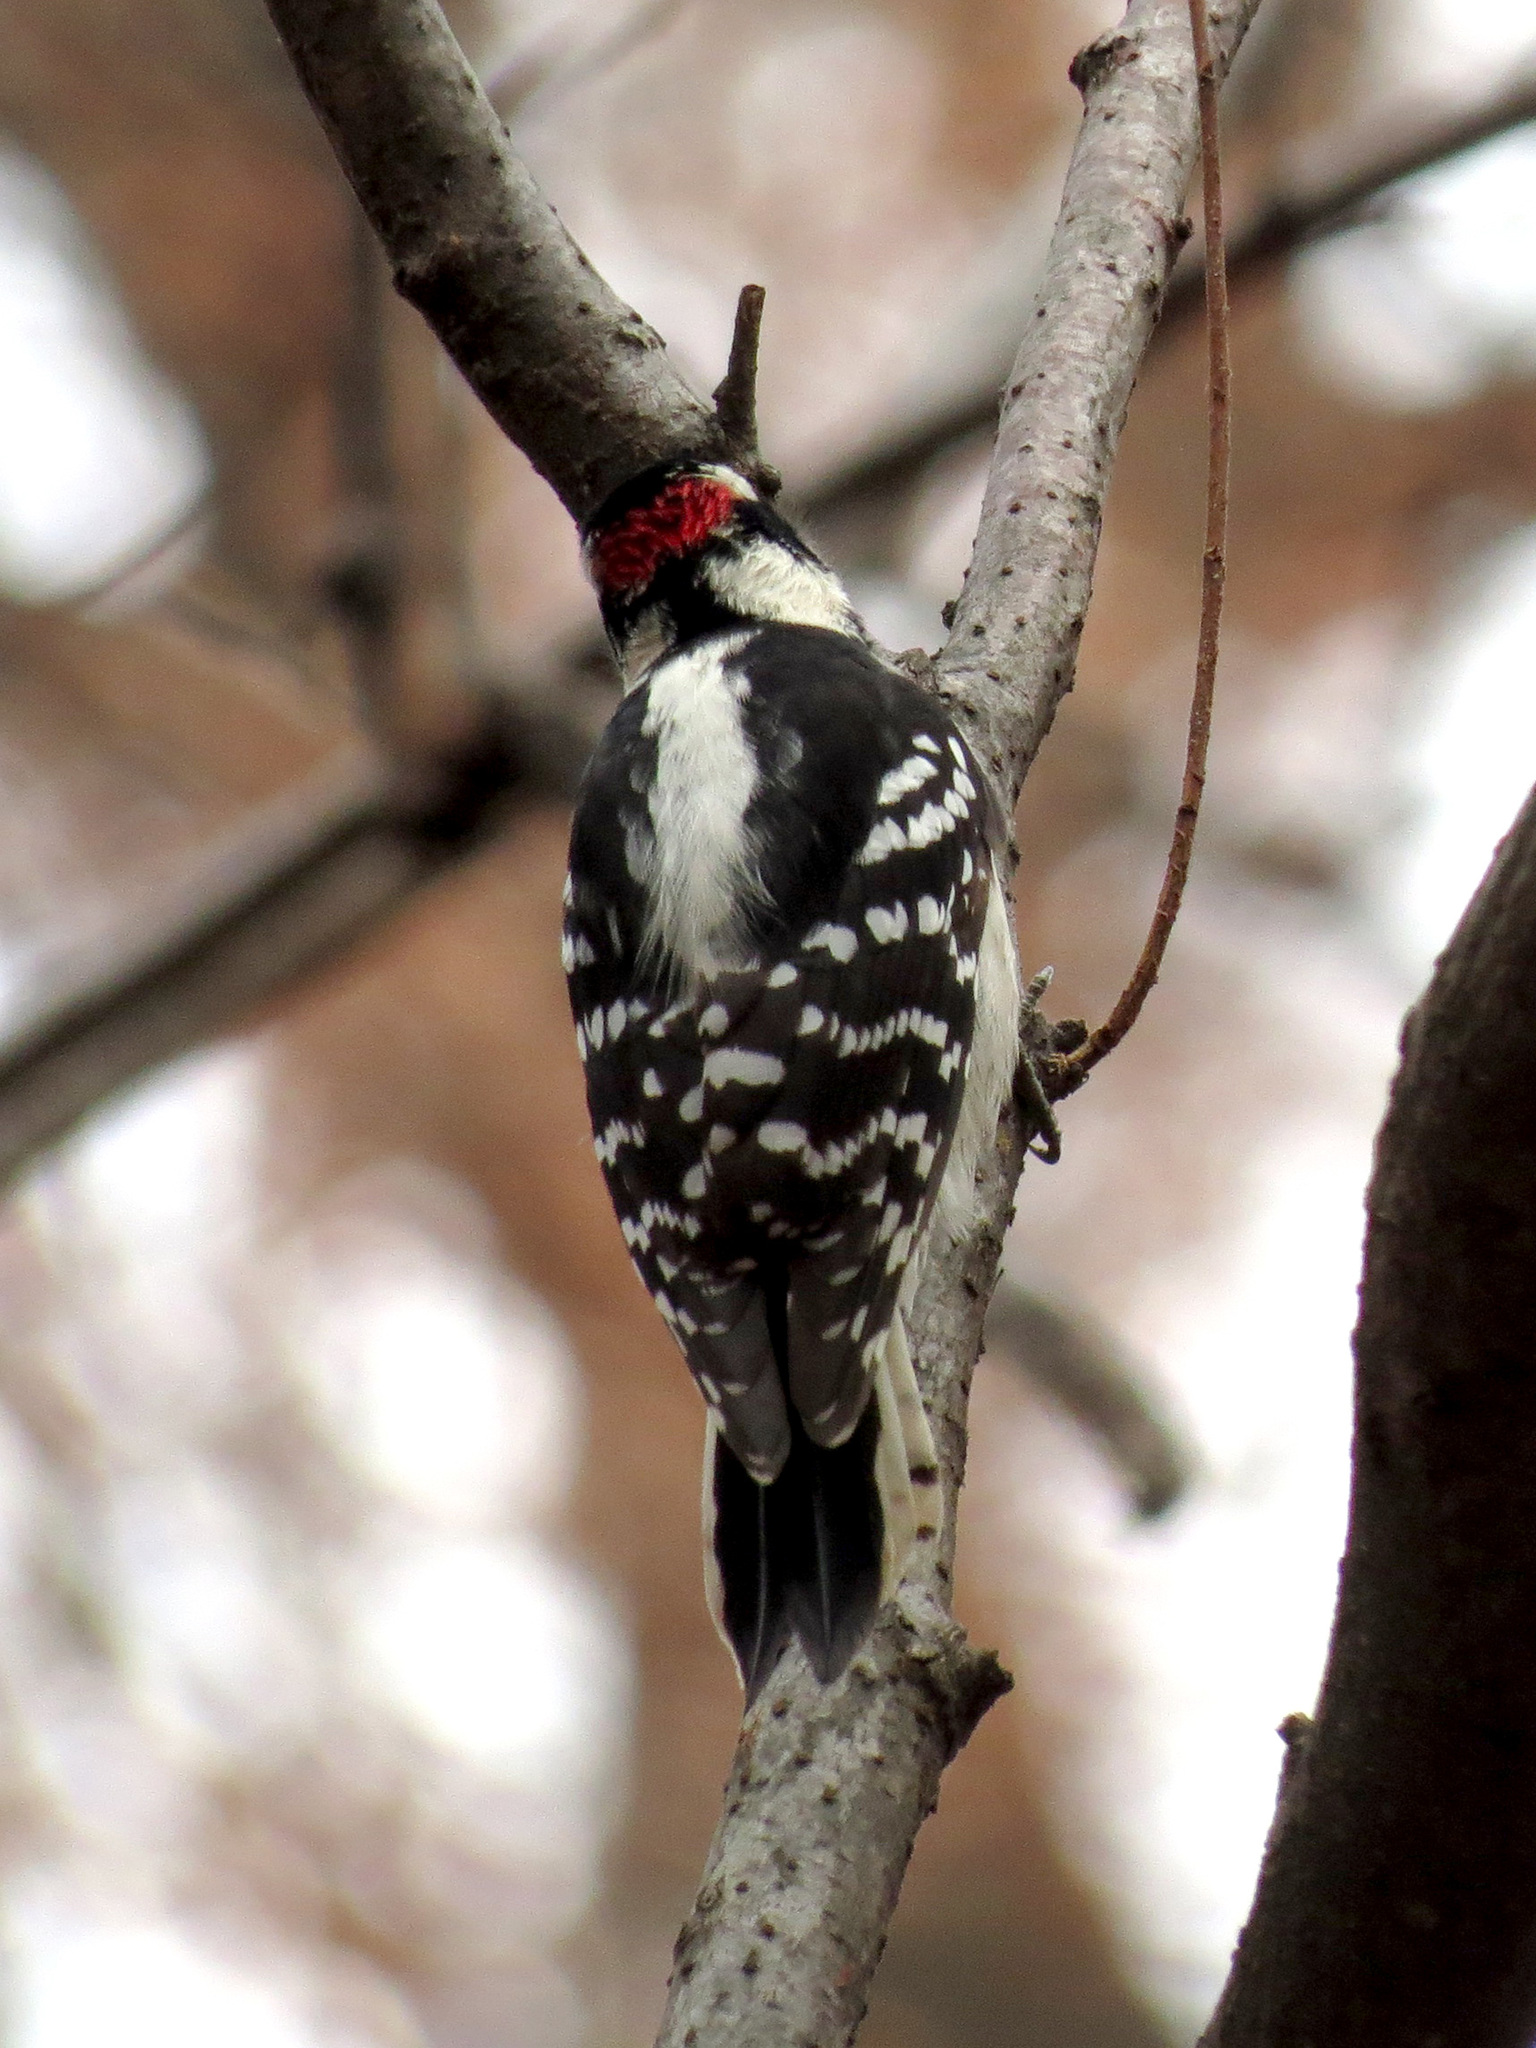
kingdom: Animalia
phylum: Chordata
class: Aves
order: Piciformes
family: Picidae
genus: Dryobates
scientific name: Dryobates pubescens
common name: Downy woodpecker
